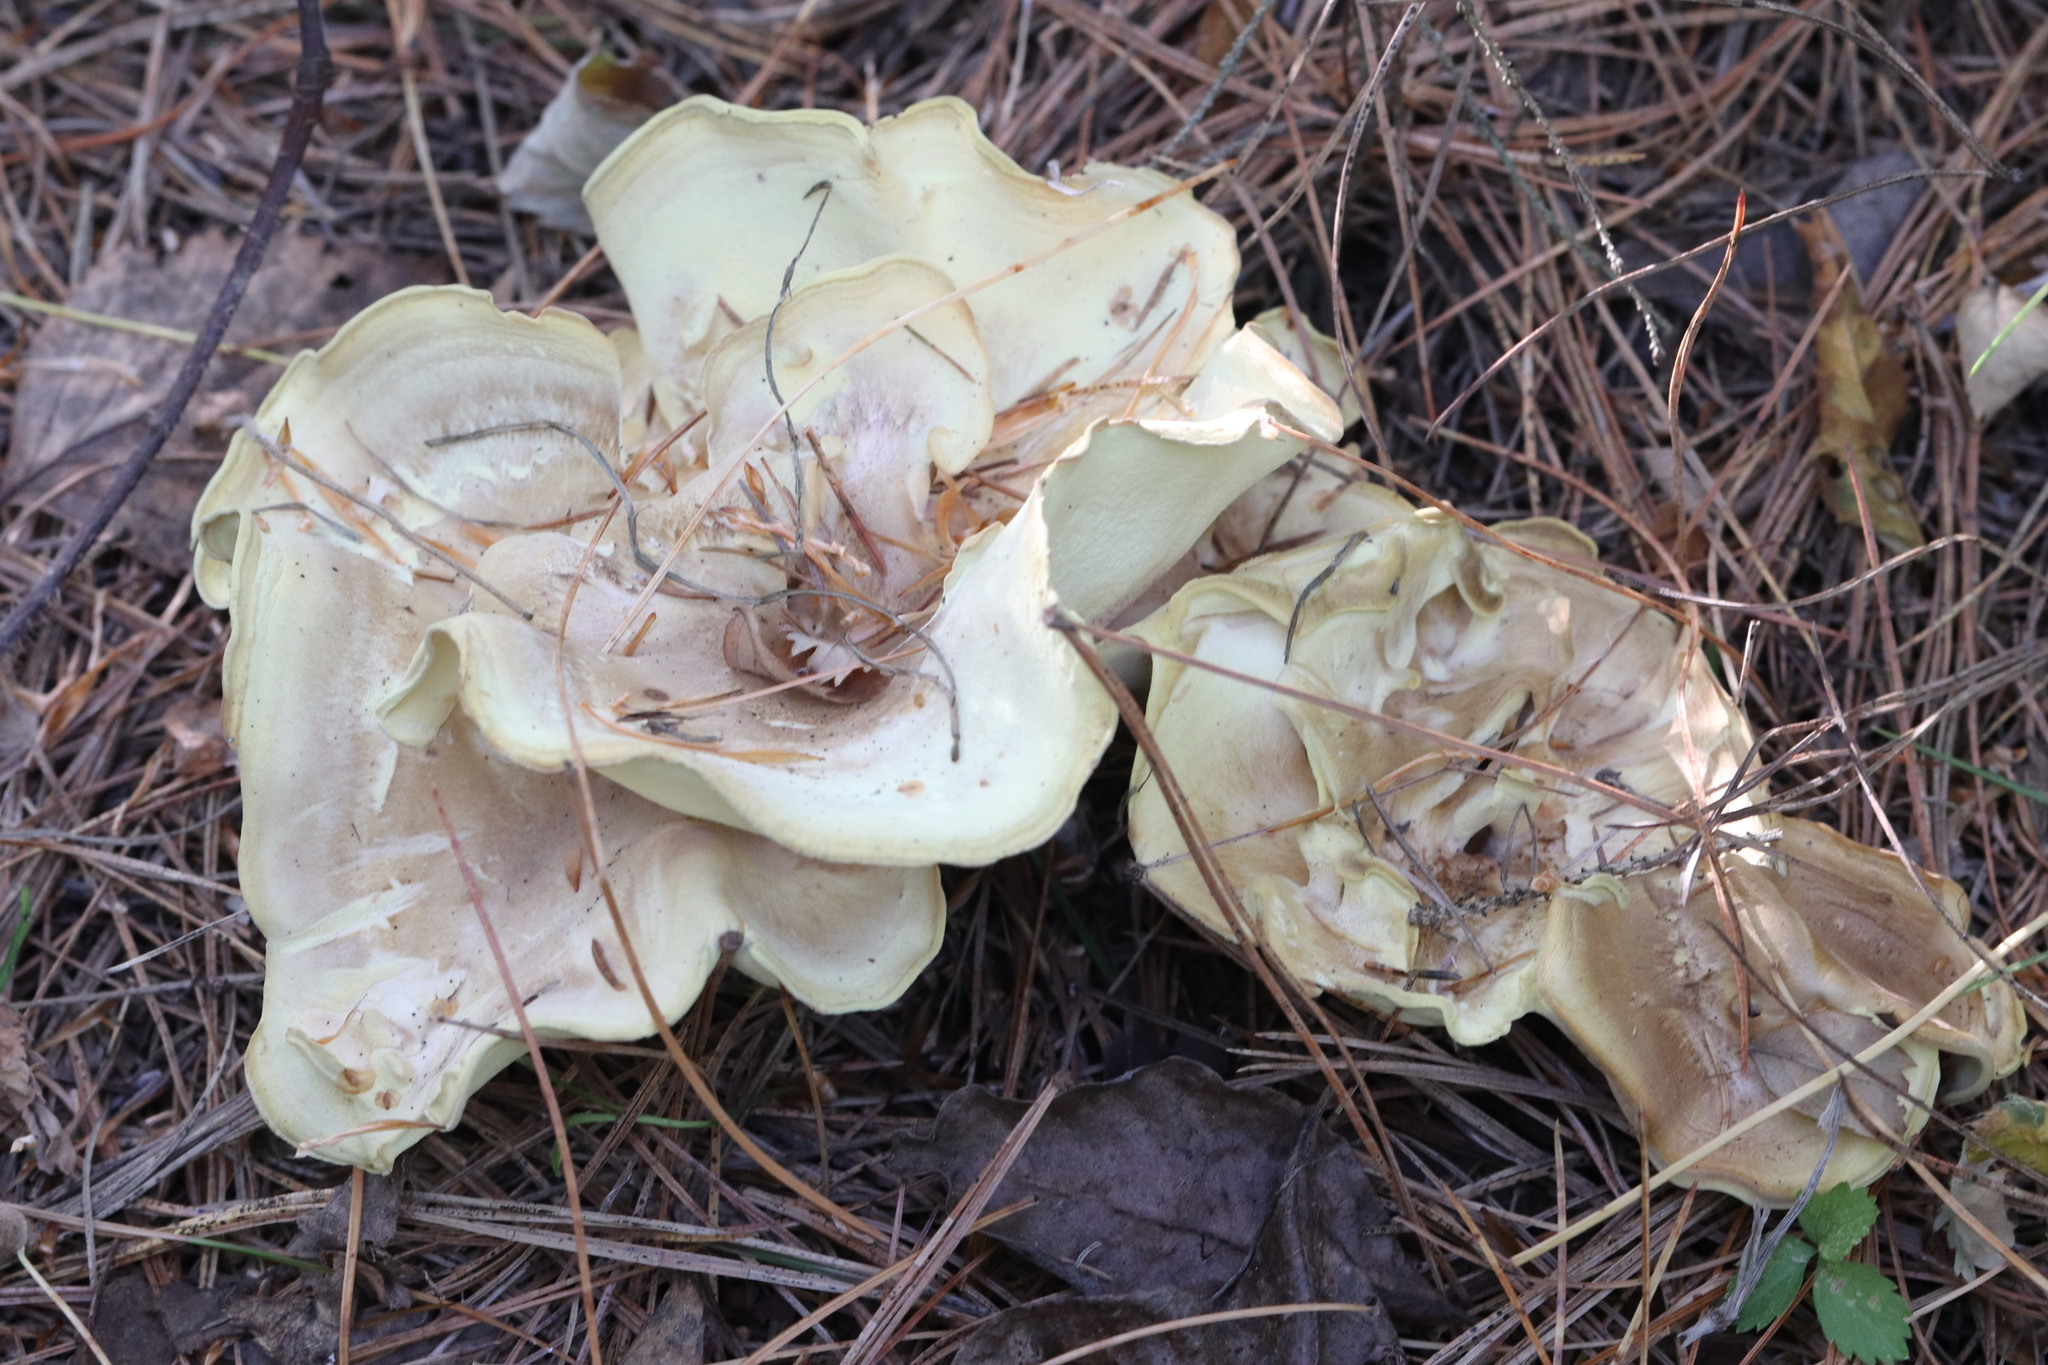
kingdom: Fungi
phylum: Basidiomycota
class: Agaricomycetes
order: Polyporales
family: Steccherinaceae
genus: Xanthoporus
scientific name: Xanthoporus syringae
